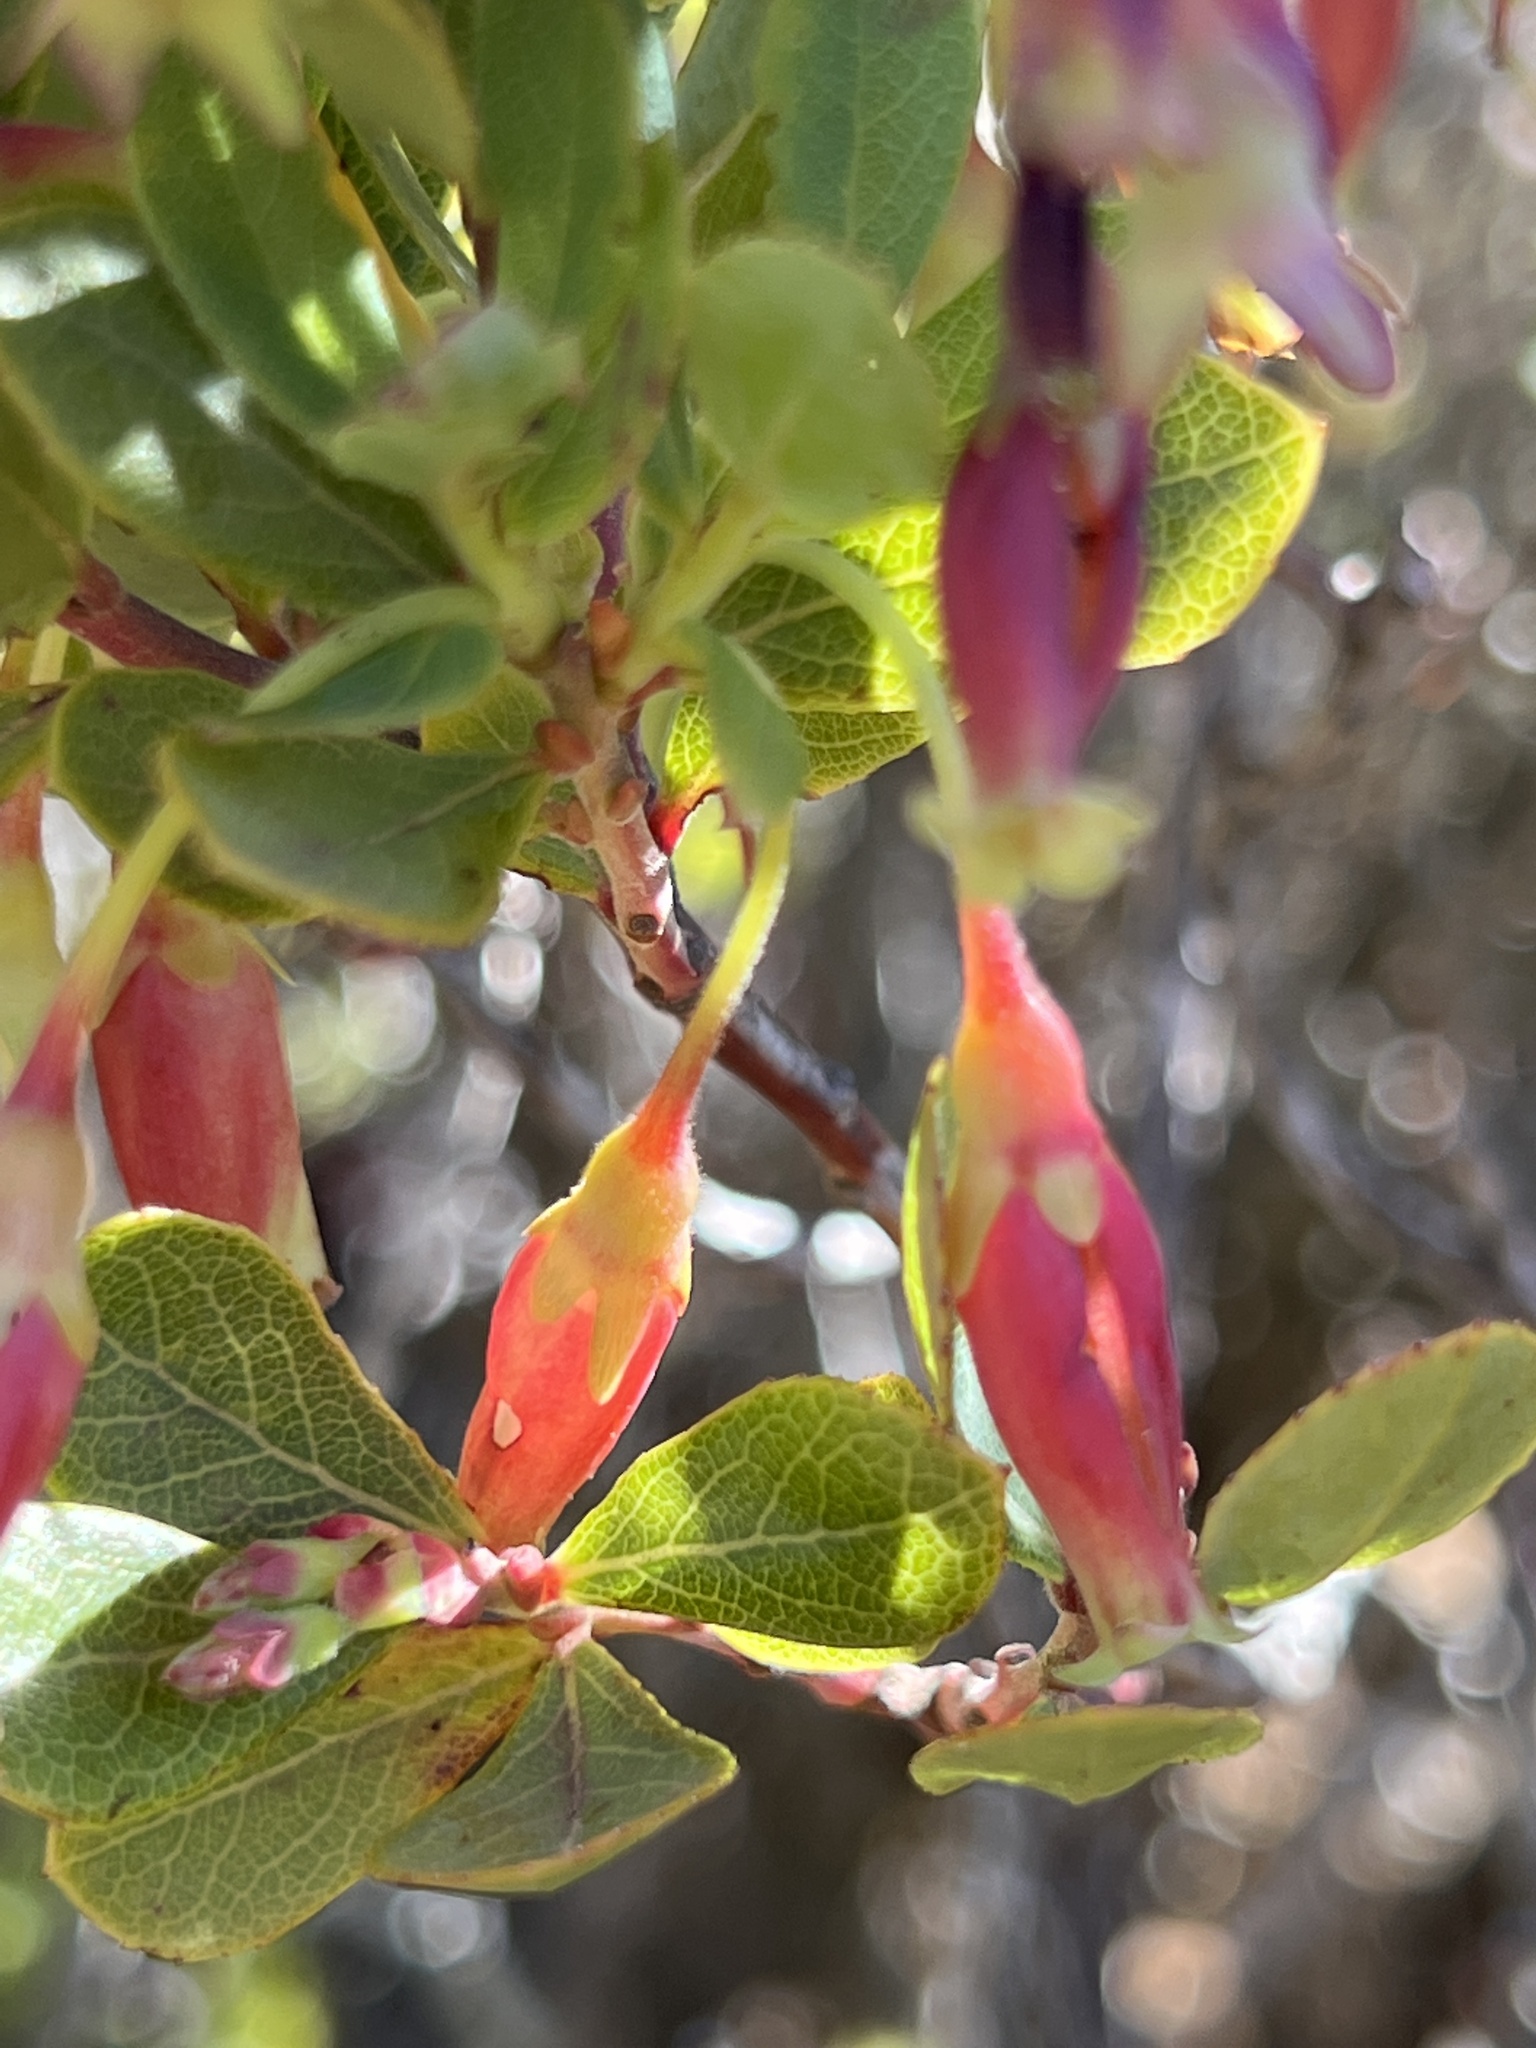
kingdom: Plantae
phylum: Tracheophyta
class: Magnoliopsida
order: Ericales
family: Ericaceae
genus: Vaccinium
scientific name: Vaccinium reticulatum
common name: Ohelo
